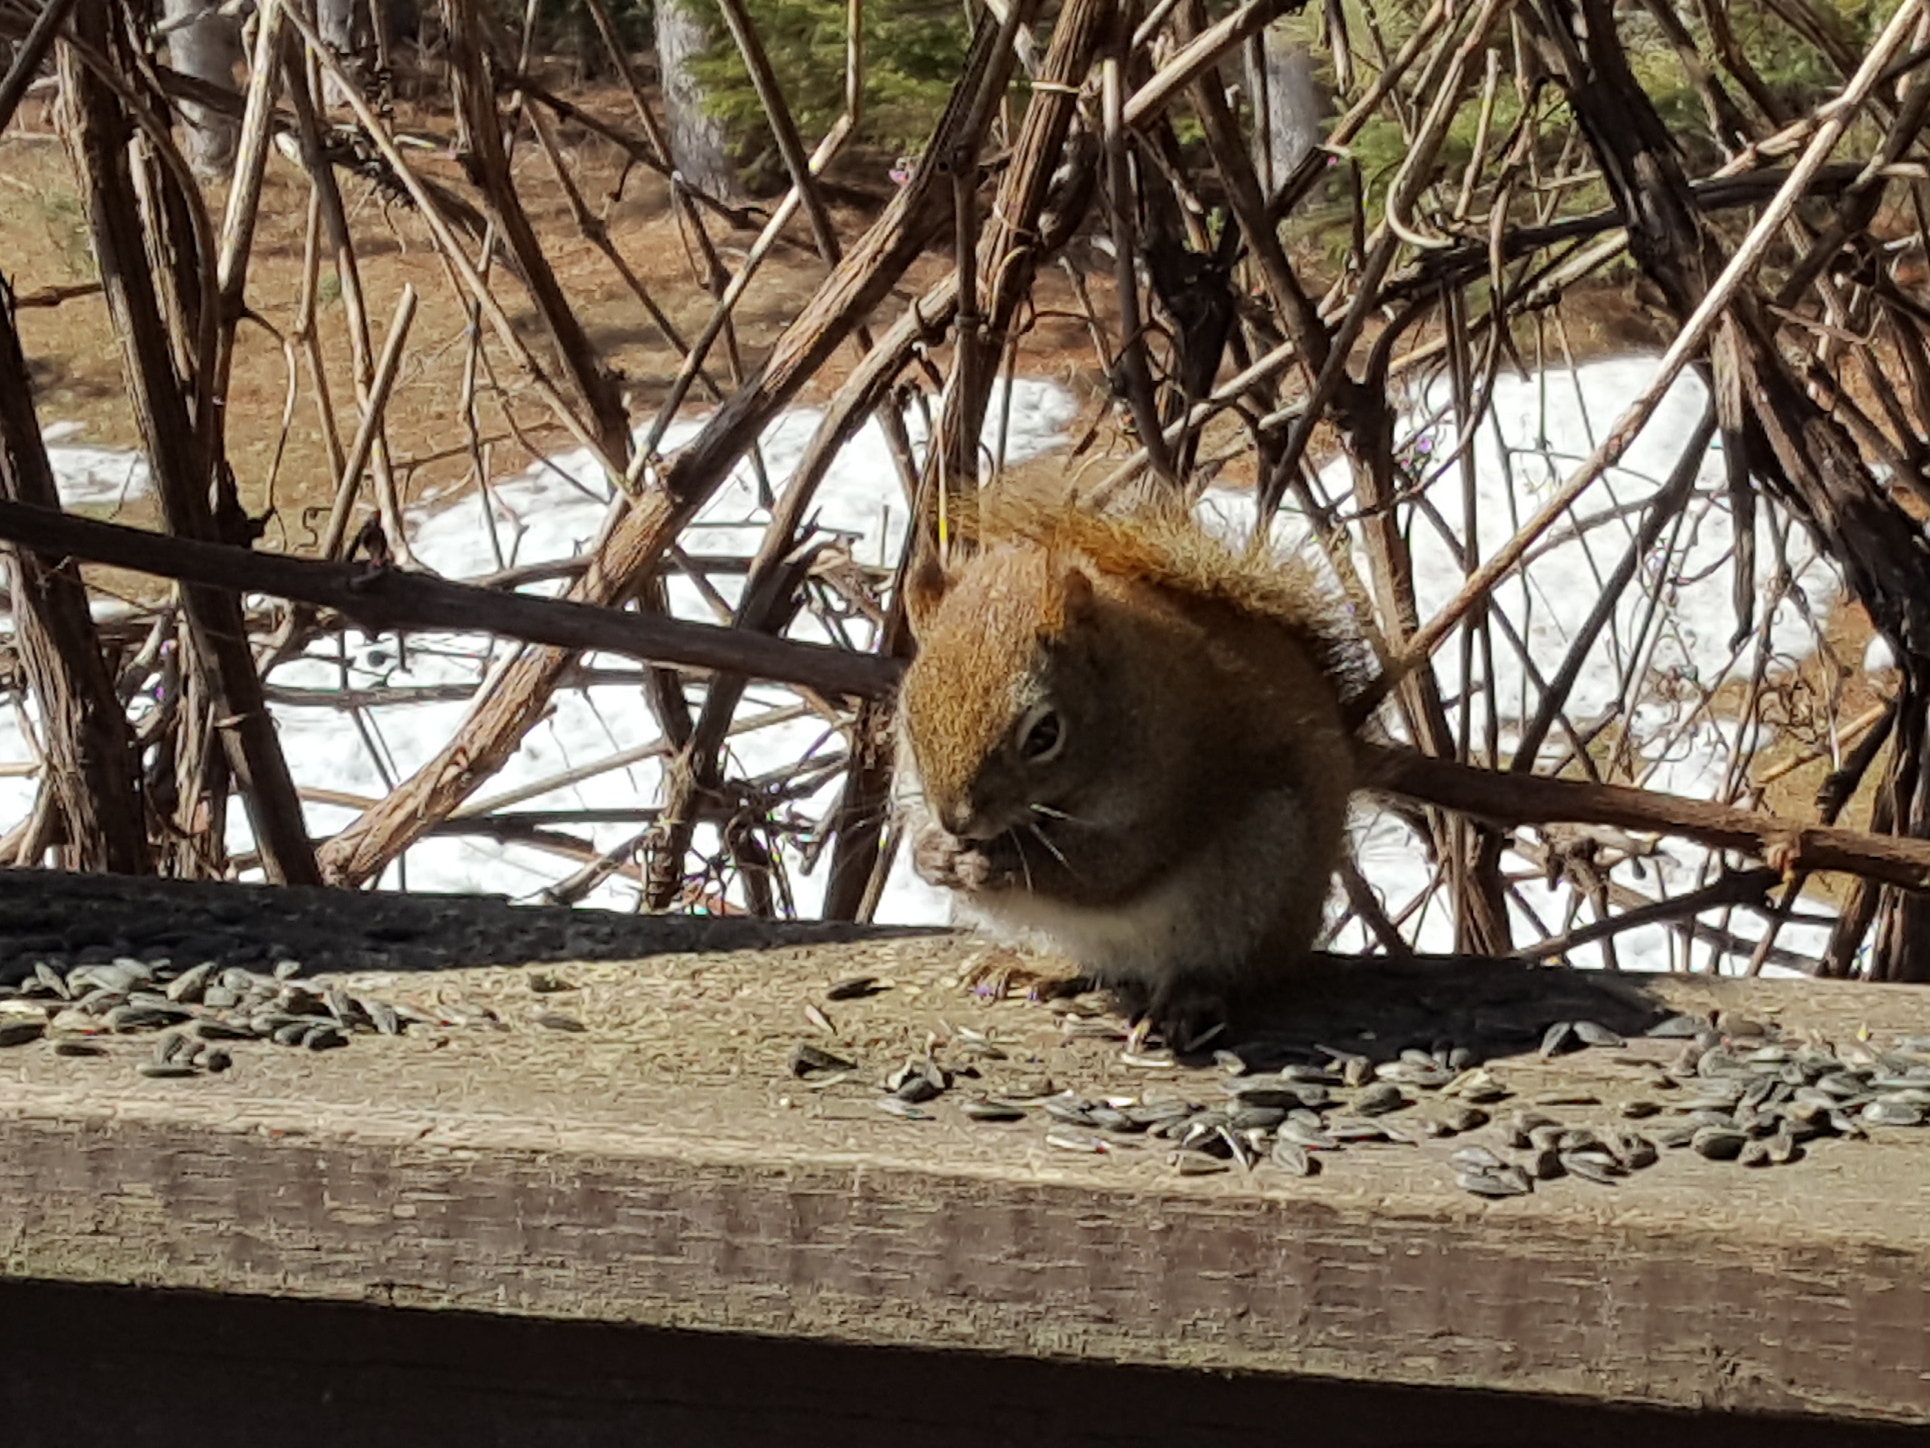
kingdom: Animalia
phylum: Chordata
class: Mammalia
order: Rodentia
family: Sciuridae
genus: Tamiasciurus
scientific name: Tamiasciurus hudsonicus
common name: Red squirrel
